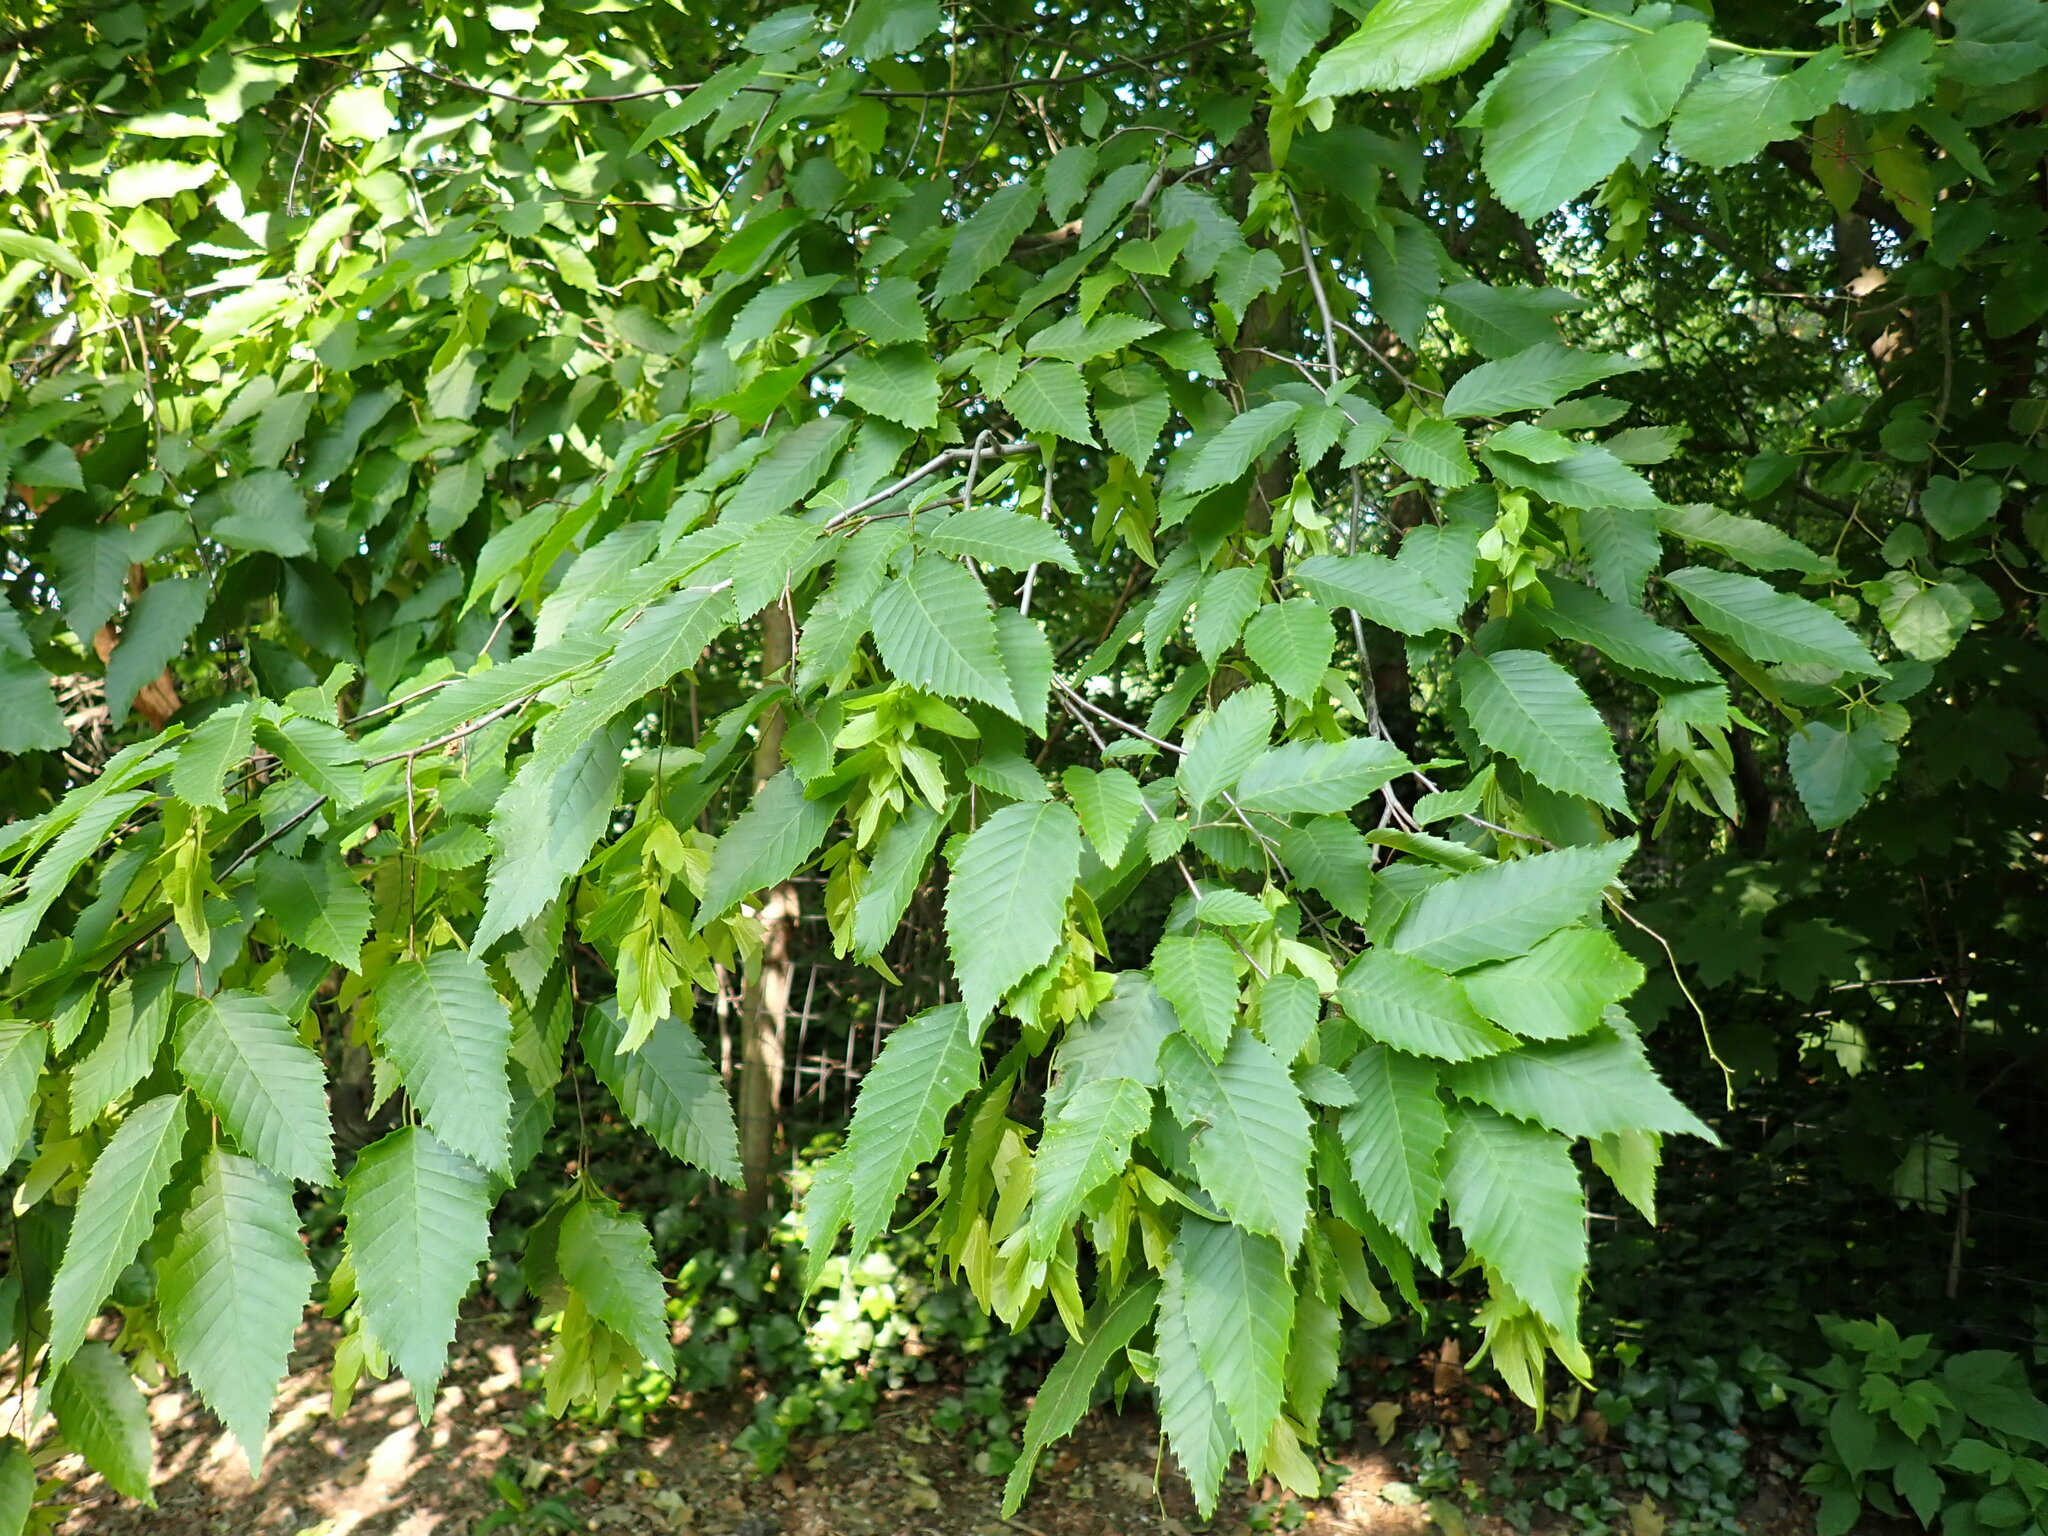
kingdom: Plantae
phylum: Tracheophyta
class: Magnoliopsida
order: Fagales
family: Betulaceae
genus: Carpinus
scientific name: Carpinus caroliniana
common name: American hornbeam
